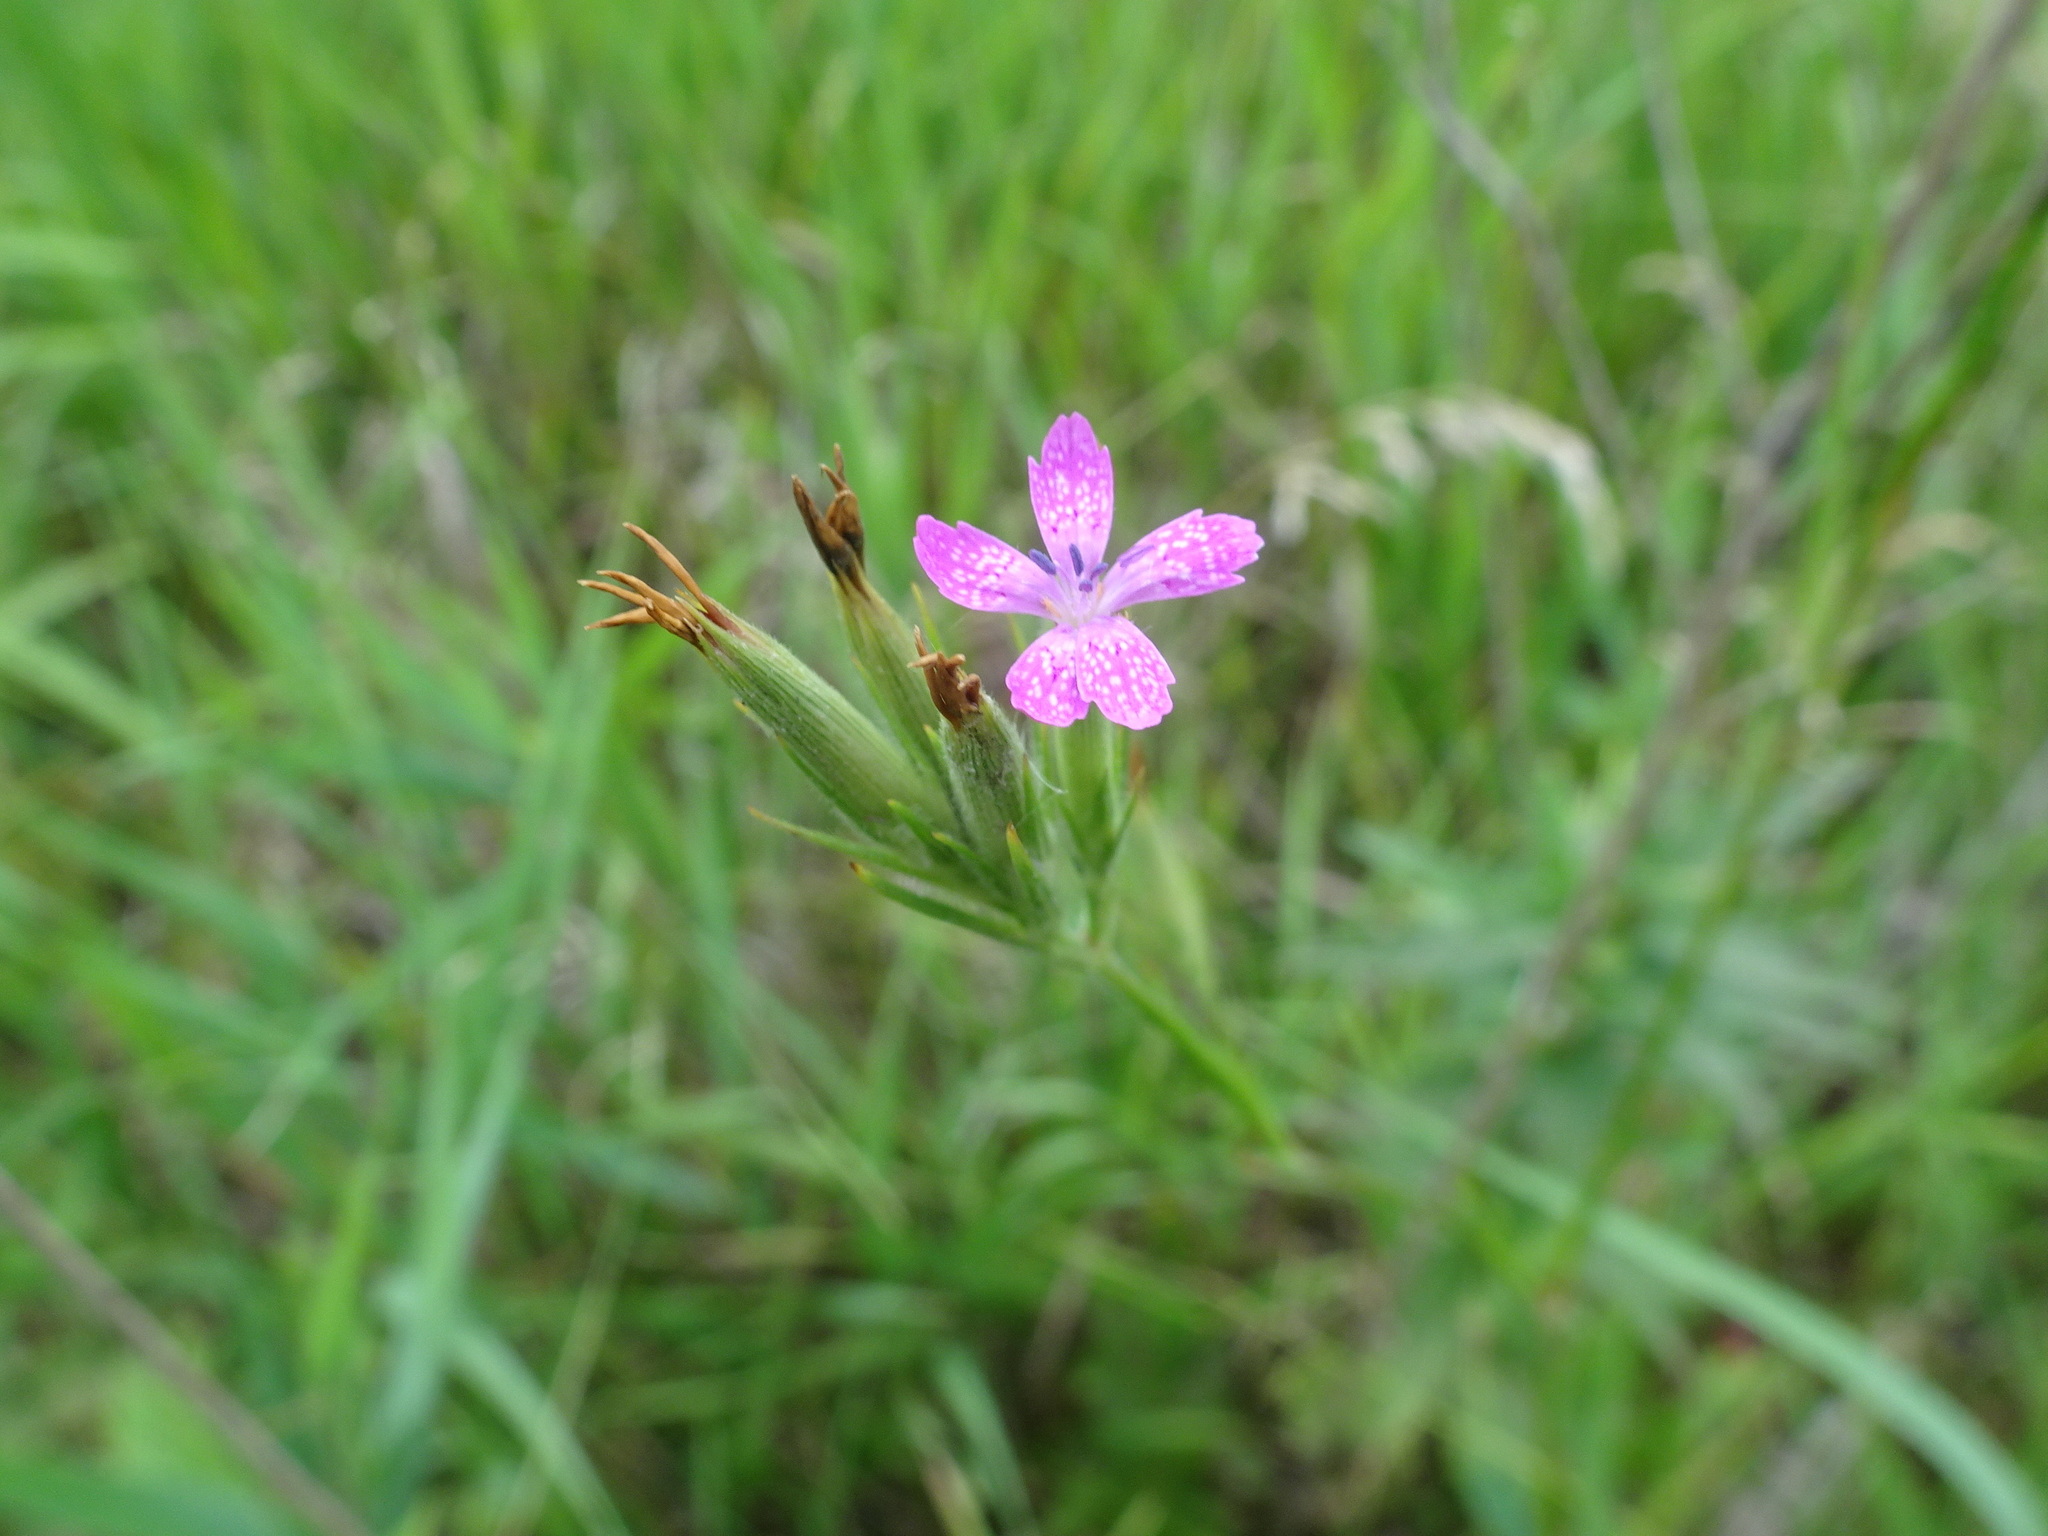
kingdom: Plantae
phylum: Tracheophyta
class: Magnoliopsida
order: Caryophyllales
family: Caryophyllaceae
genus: Dianthus
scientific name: Dianthus armeria
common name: Deptford pink
